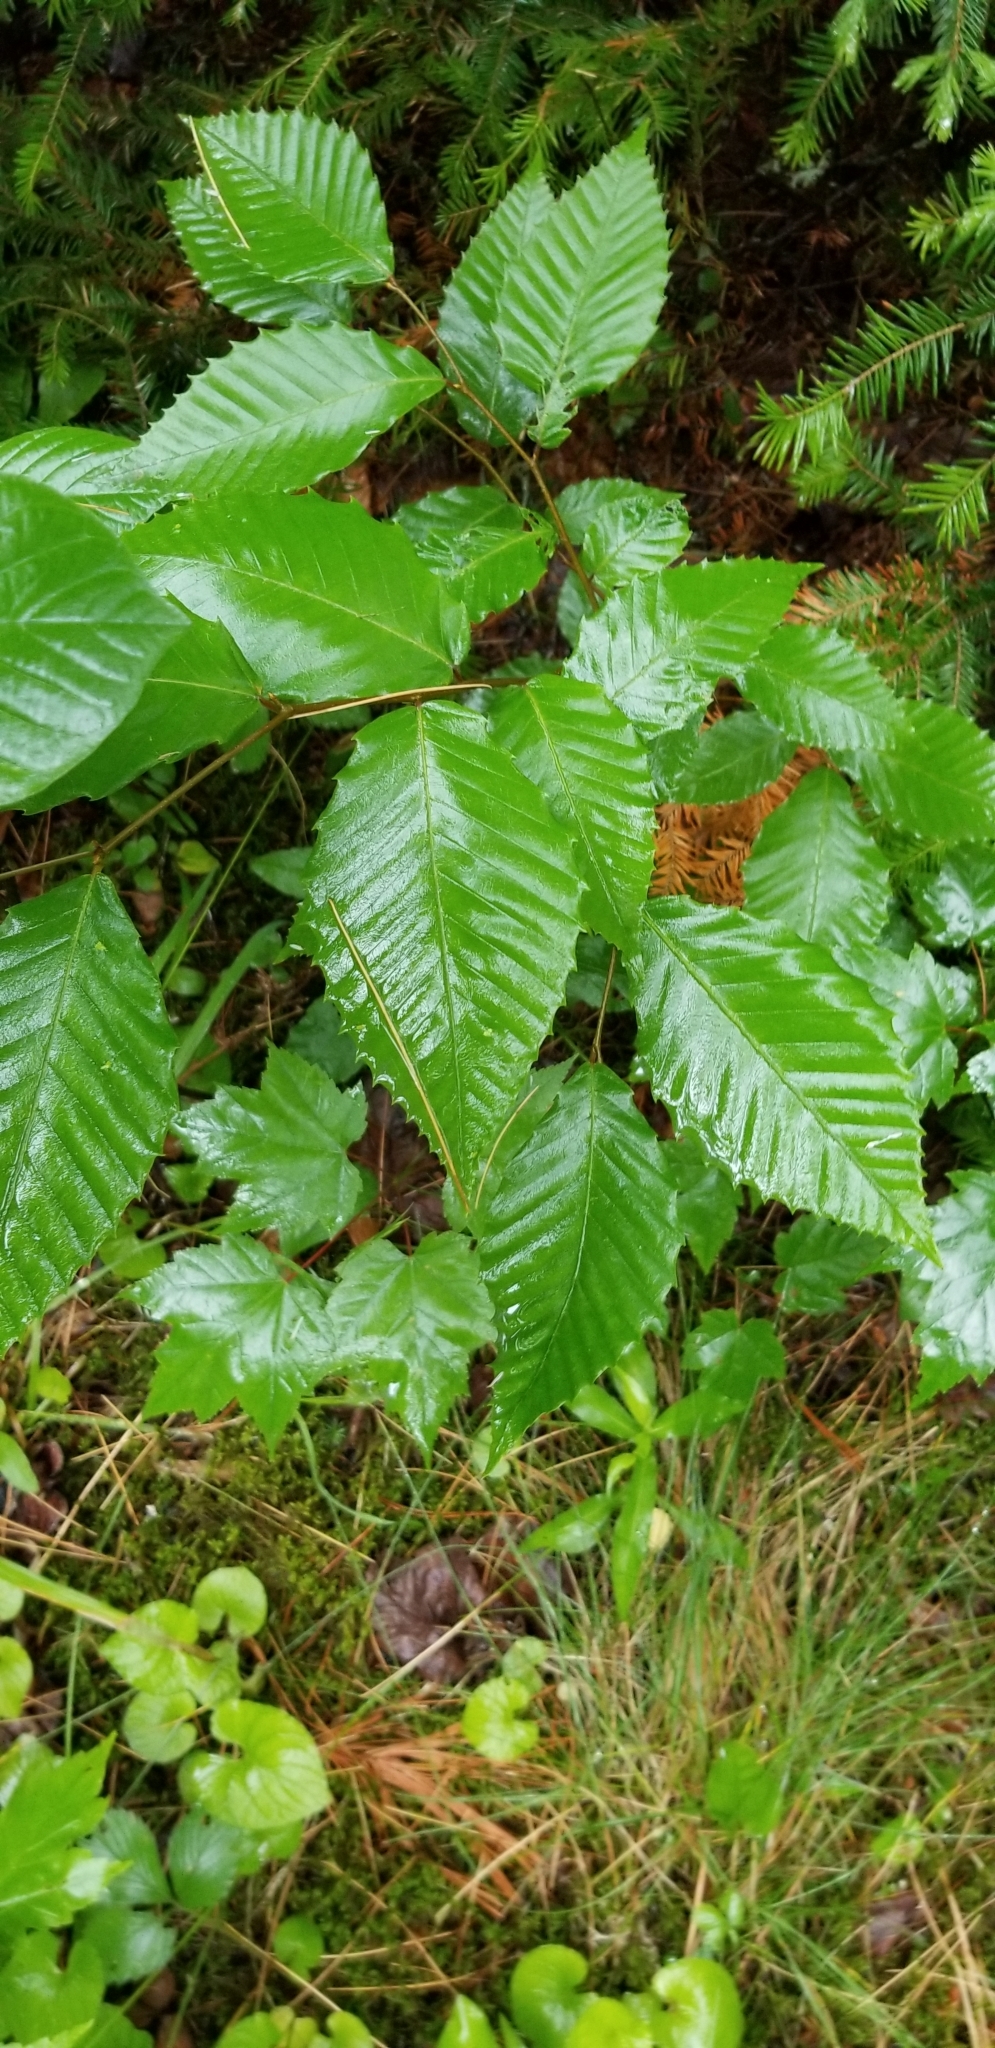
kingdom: Plantae
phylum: Tracheophyta
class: Magnoliopsida
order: Fagales
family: Fagaceae
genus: Fagus
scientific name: Fagus grandifolia
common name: American beech
